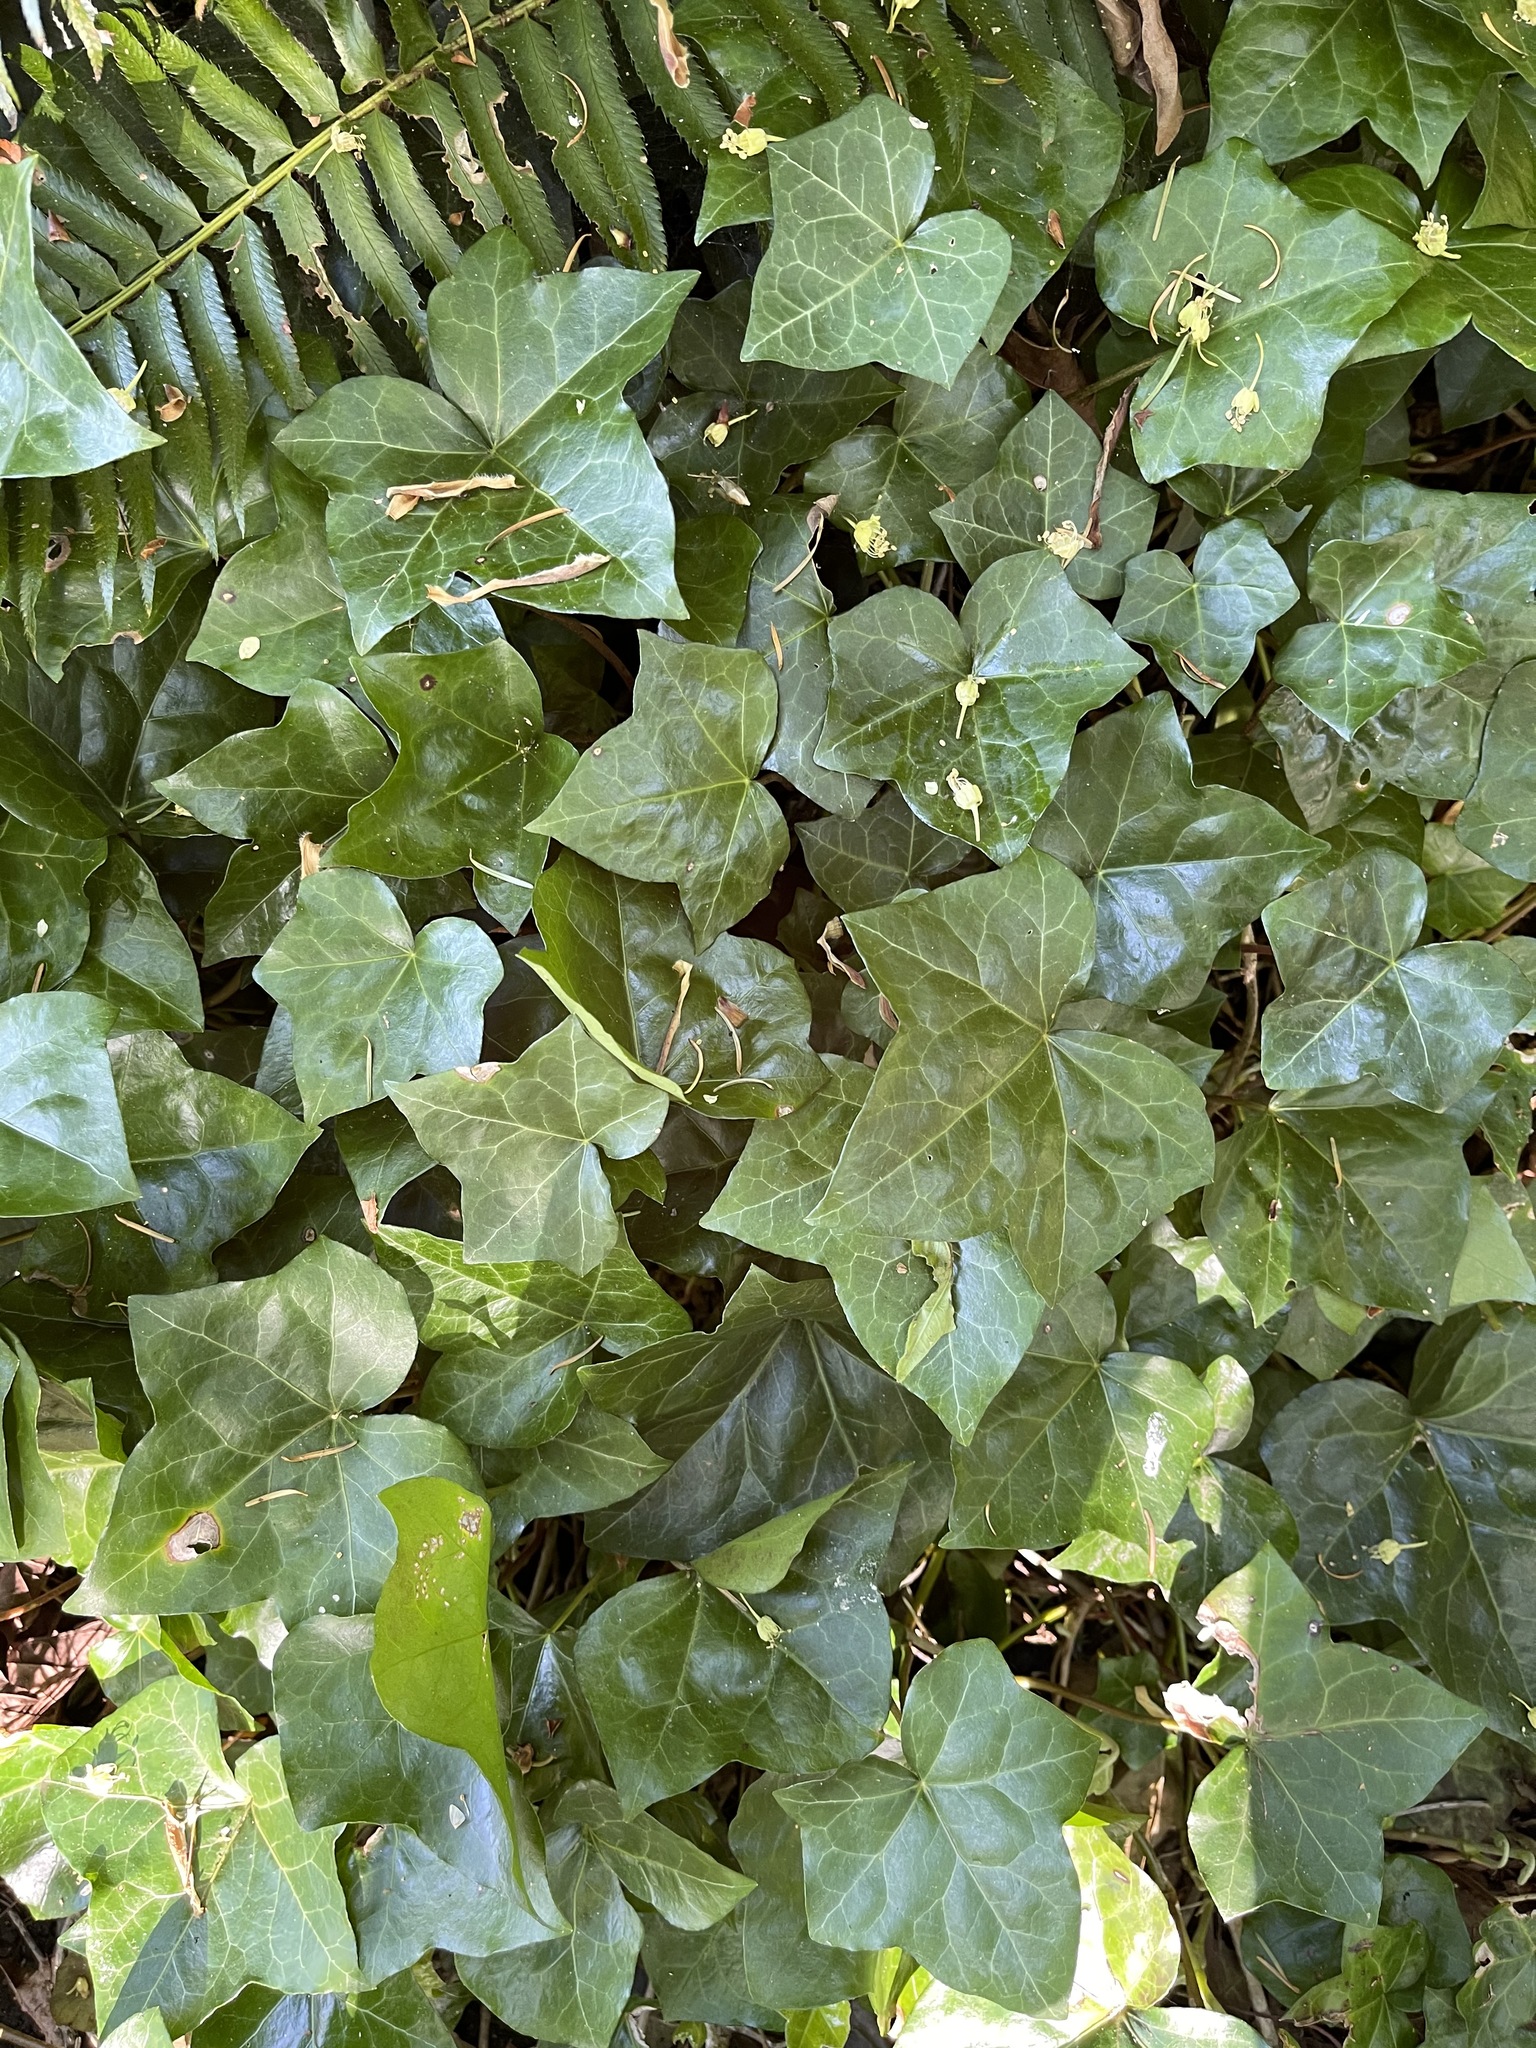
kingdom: Plantae
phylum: Tracheophyta
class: Magnoliopsida
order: Apiales
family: Araliaceae
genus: Hedera
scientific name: Hedera helix
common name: Ivy
